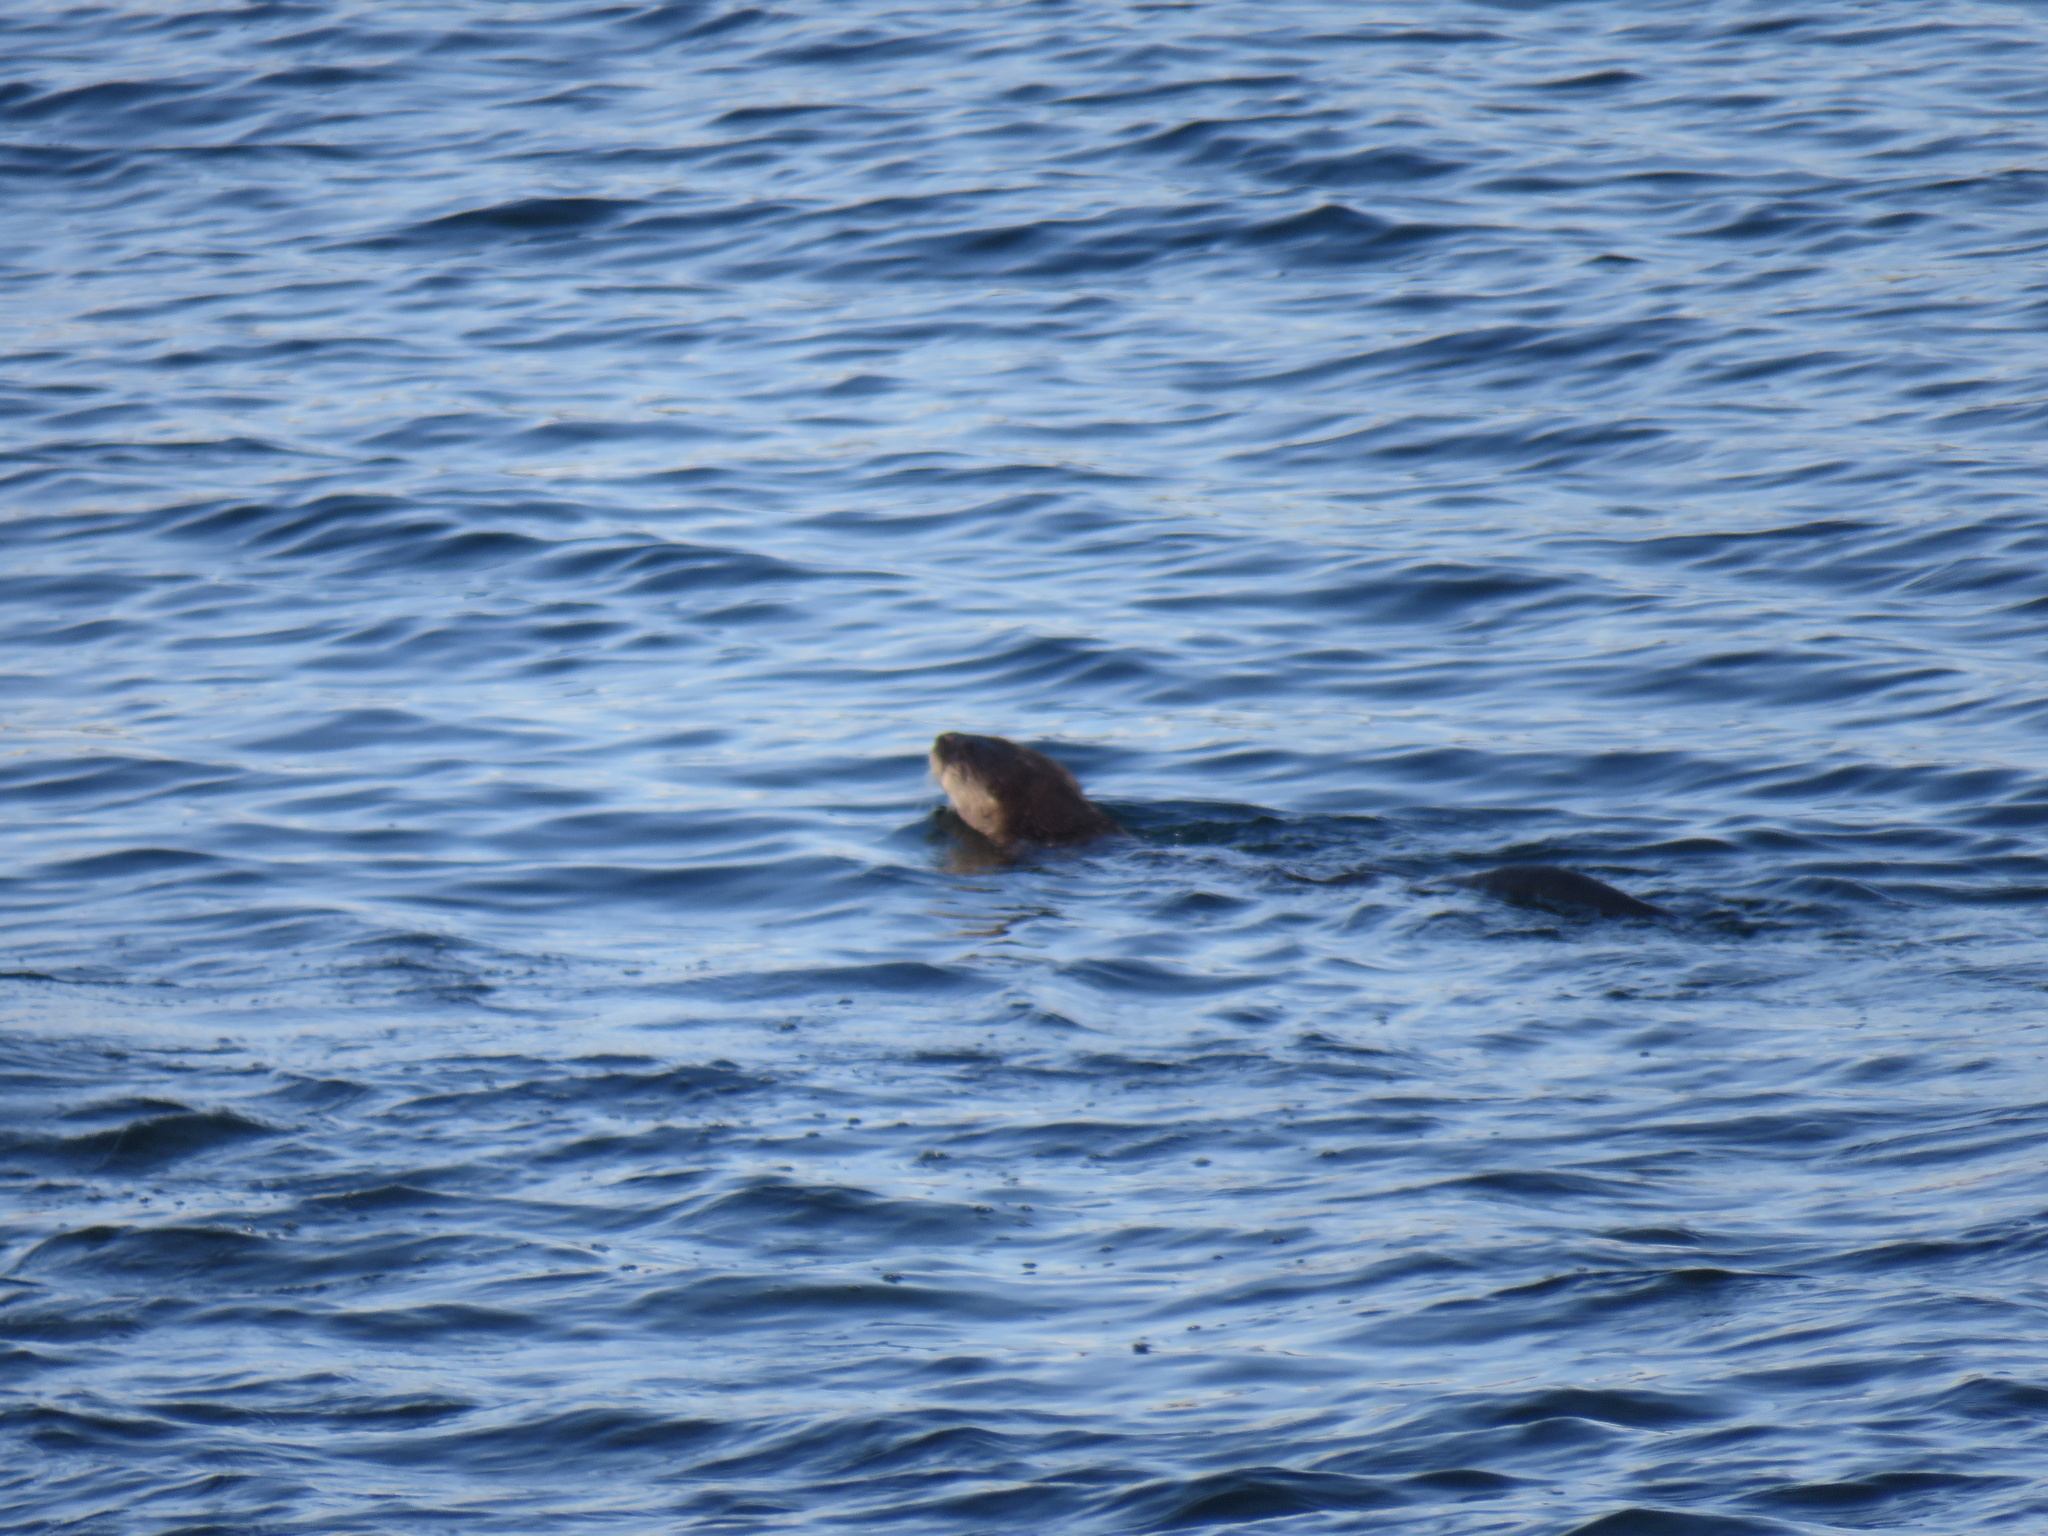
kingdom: Animalia
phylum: Chordata
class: Mammalia
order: Carnivora
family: Mustelidae
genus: Lontra
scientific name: Lontra canadensis
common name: North american river otter
